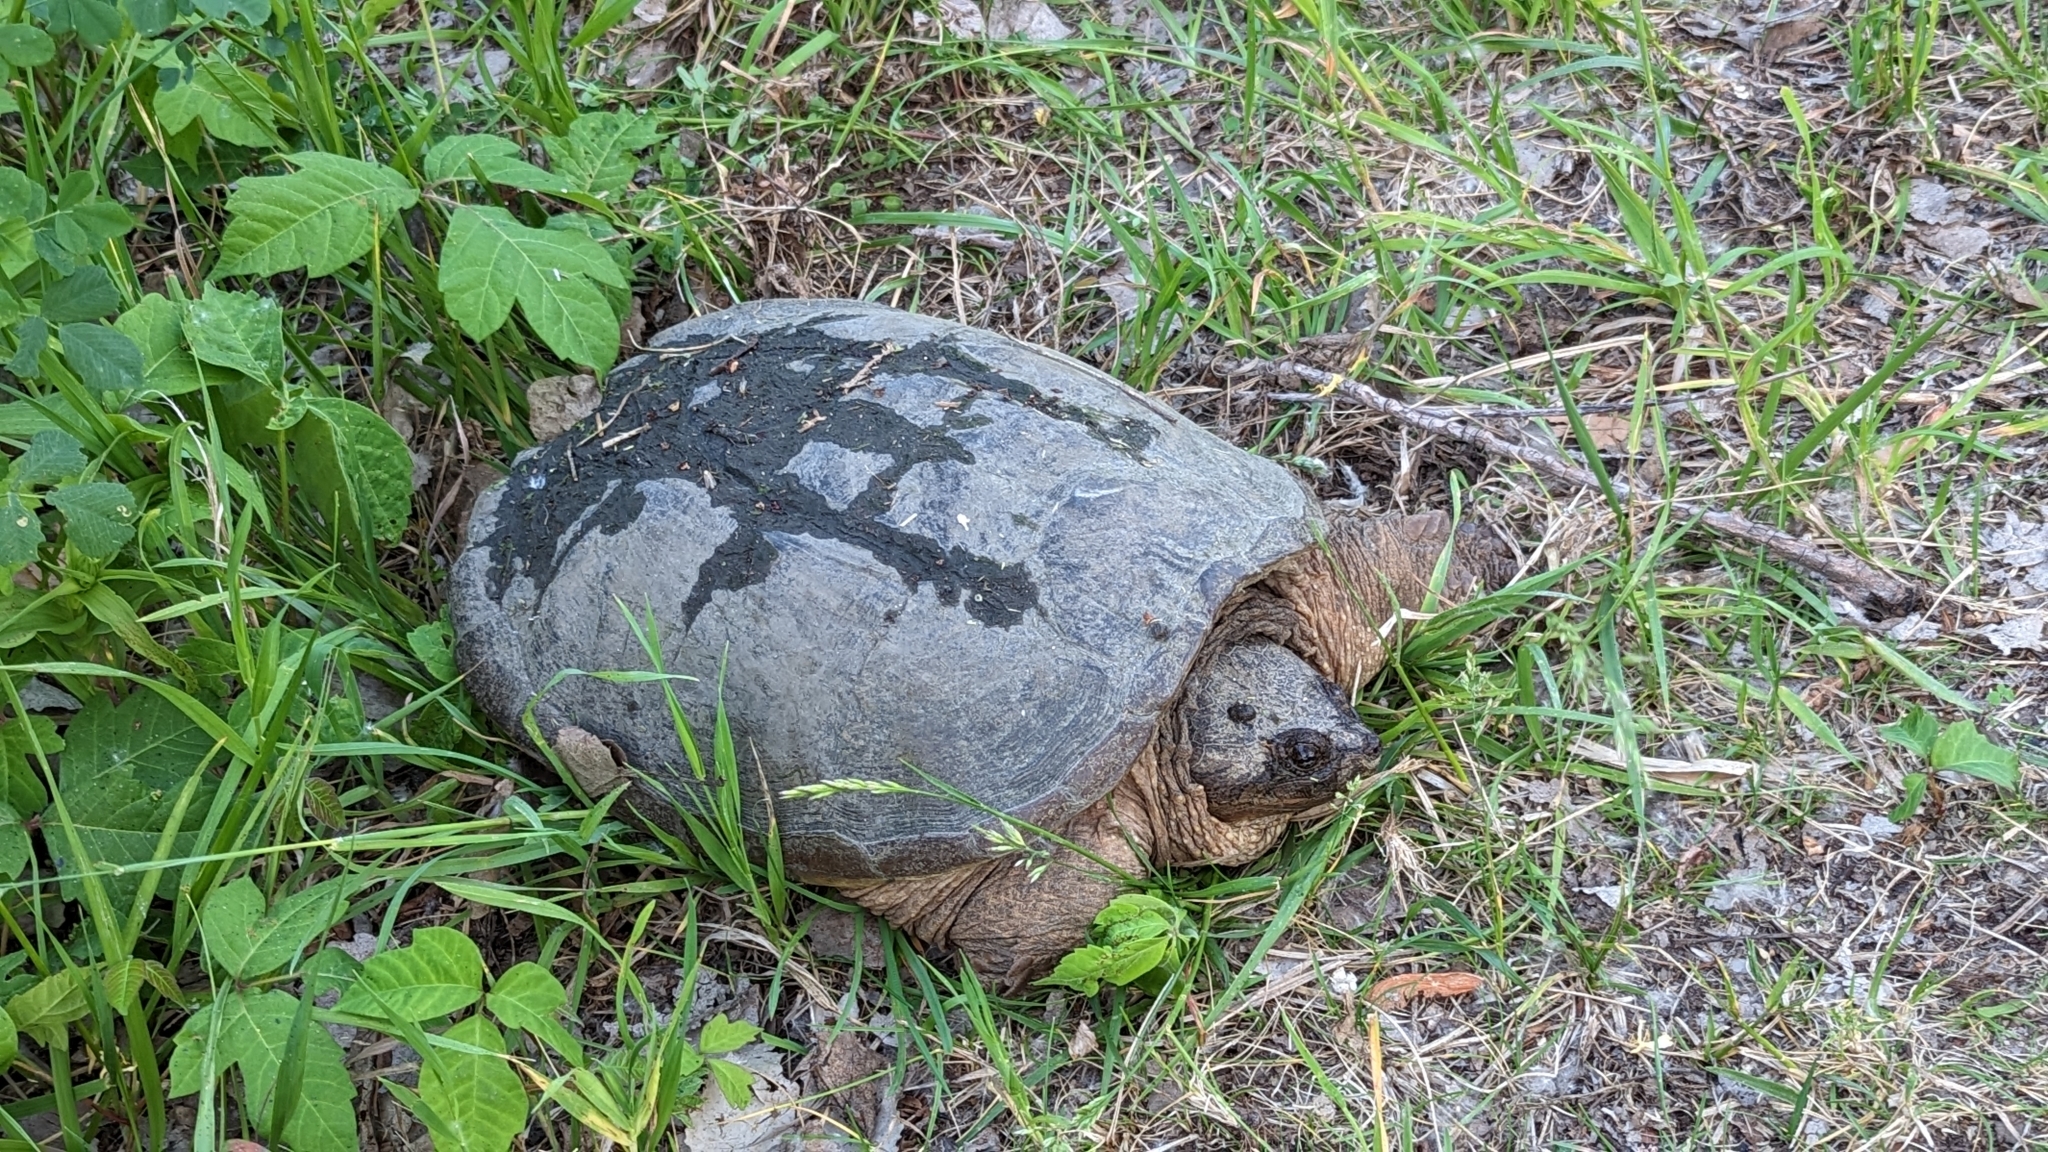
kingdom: Animalia
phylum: Chordata
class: Testudines
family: Chelydridae
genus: Chelydra
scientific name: Chelydra serpentina
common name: Common snapping turtle
